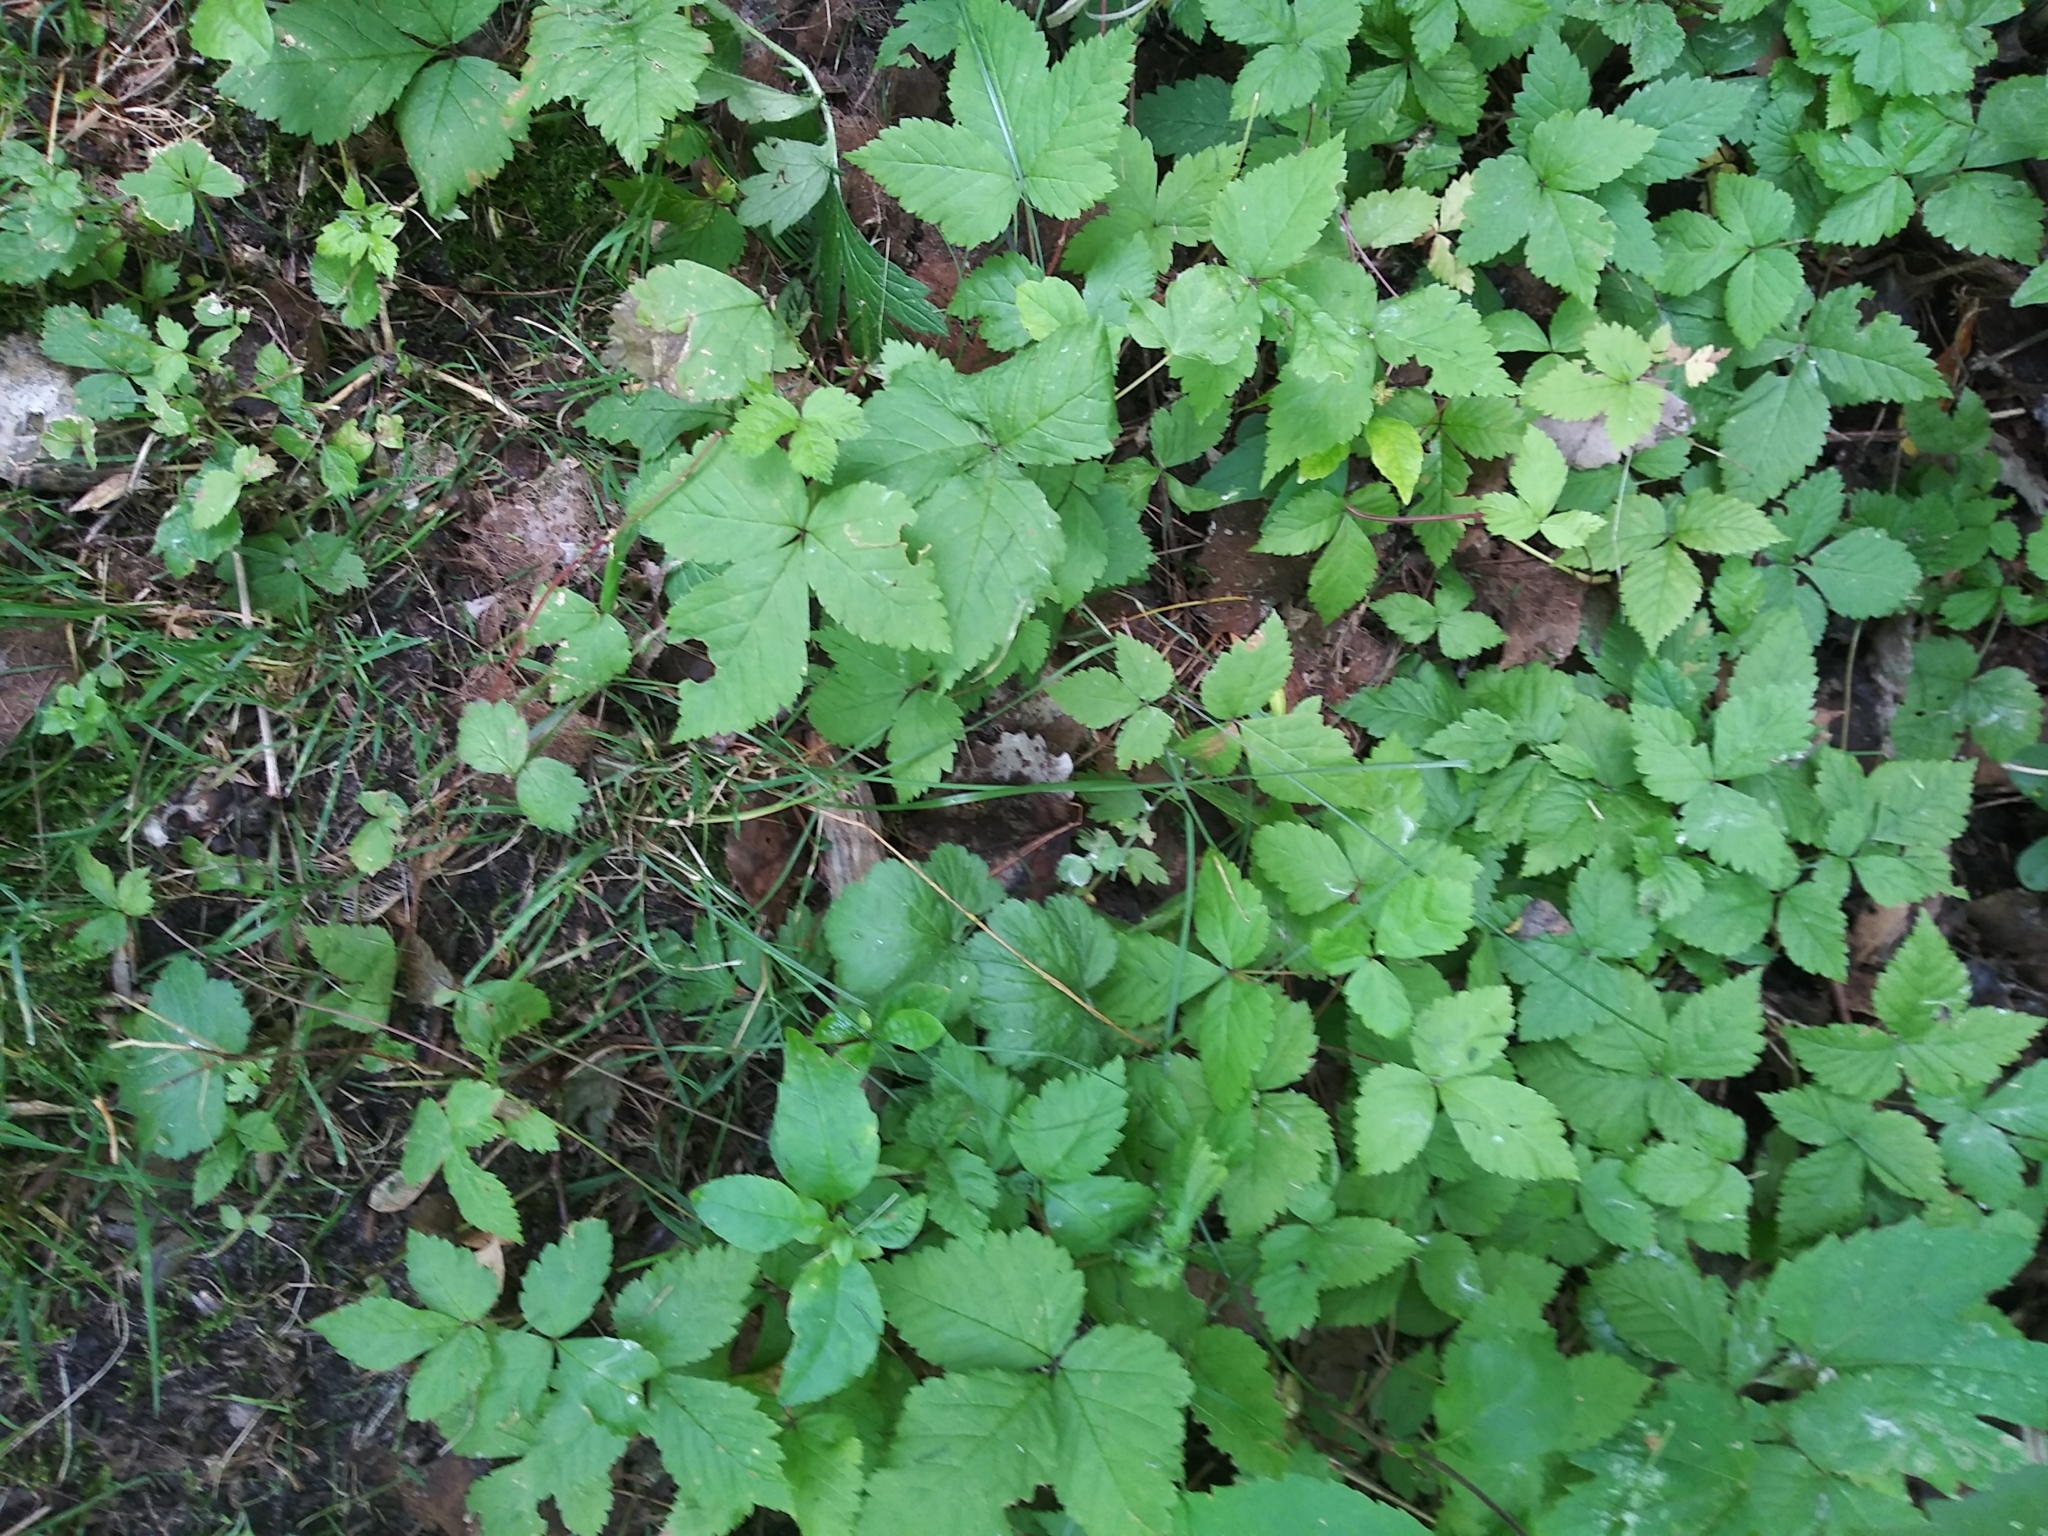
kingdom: Plantae
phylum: Tracheophyta
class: Magnoliopsida
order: Rosales
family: Rosaceae
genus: Rubus
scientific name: Rubus pubescens
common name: Dwarf raspberry
